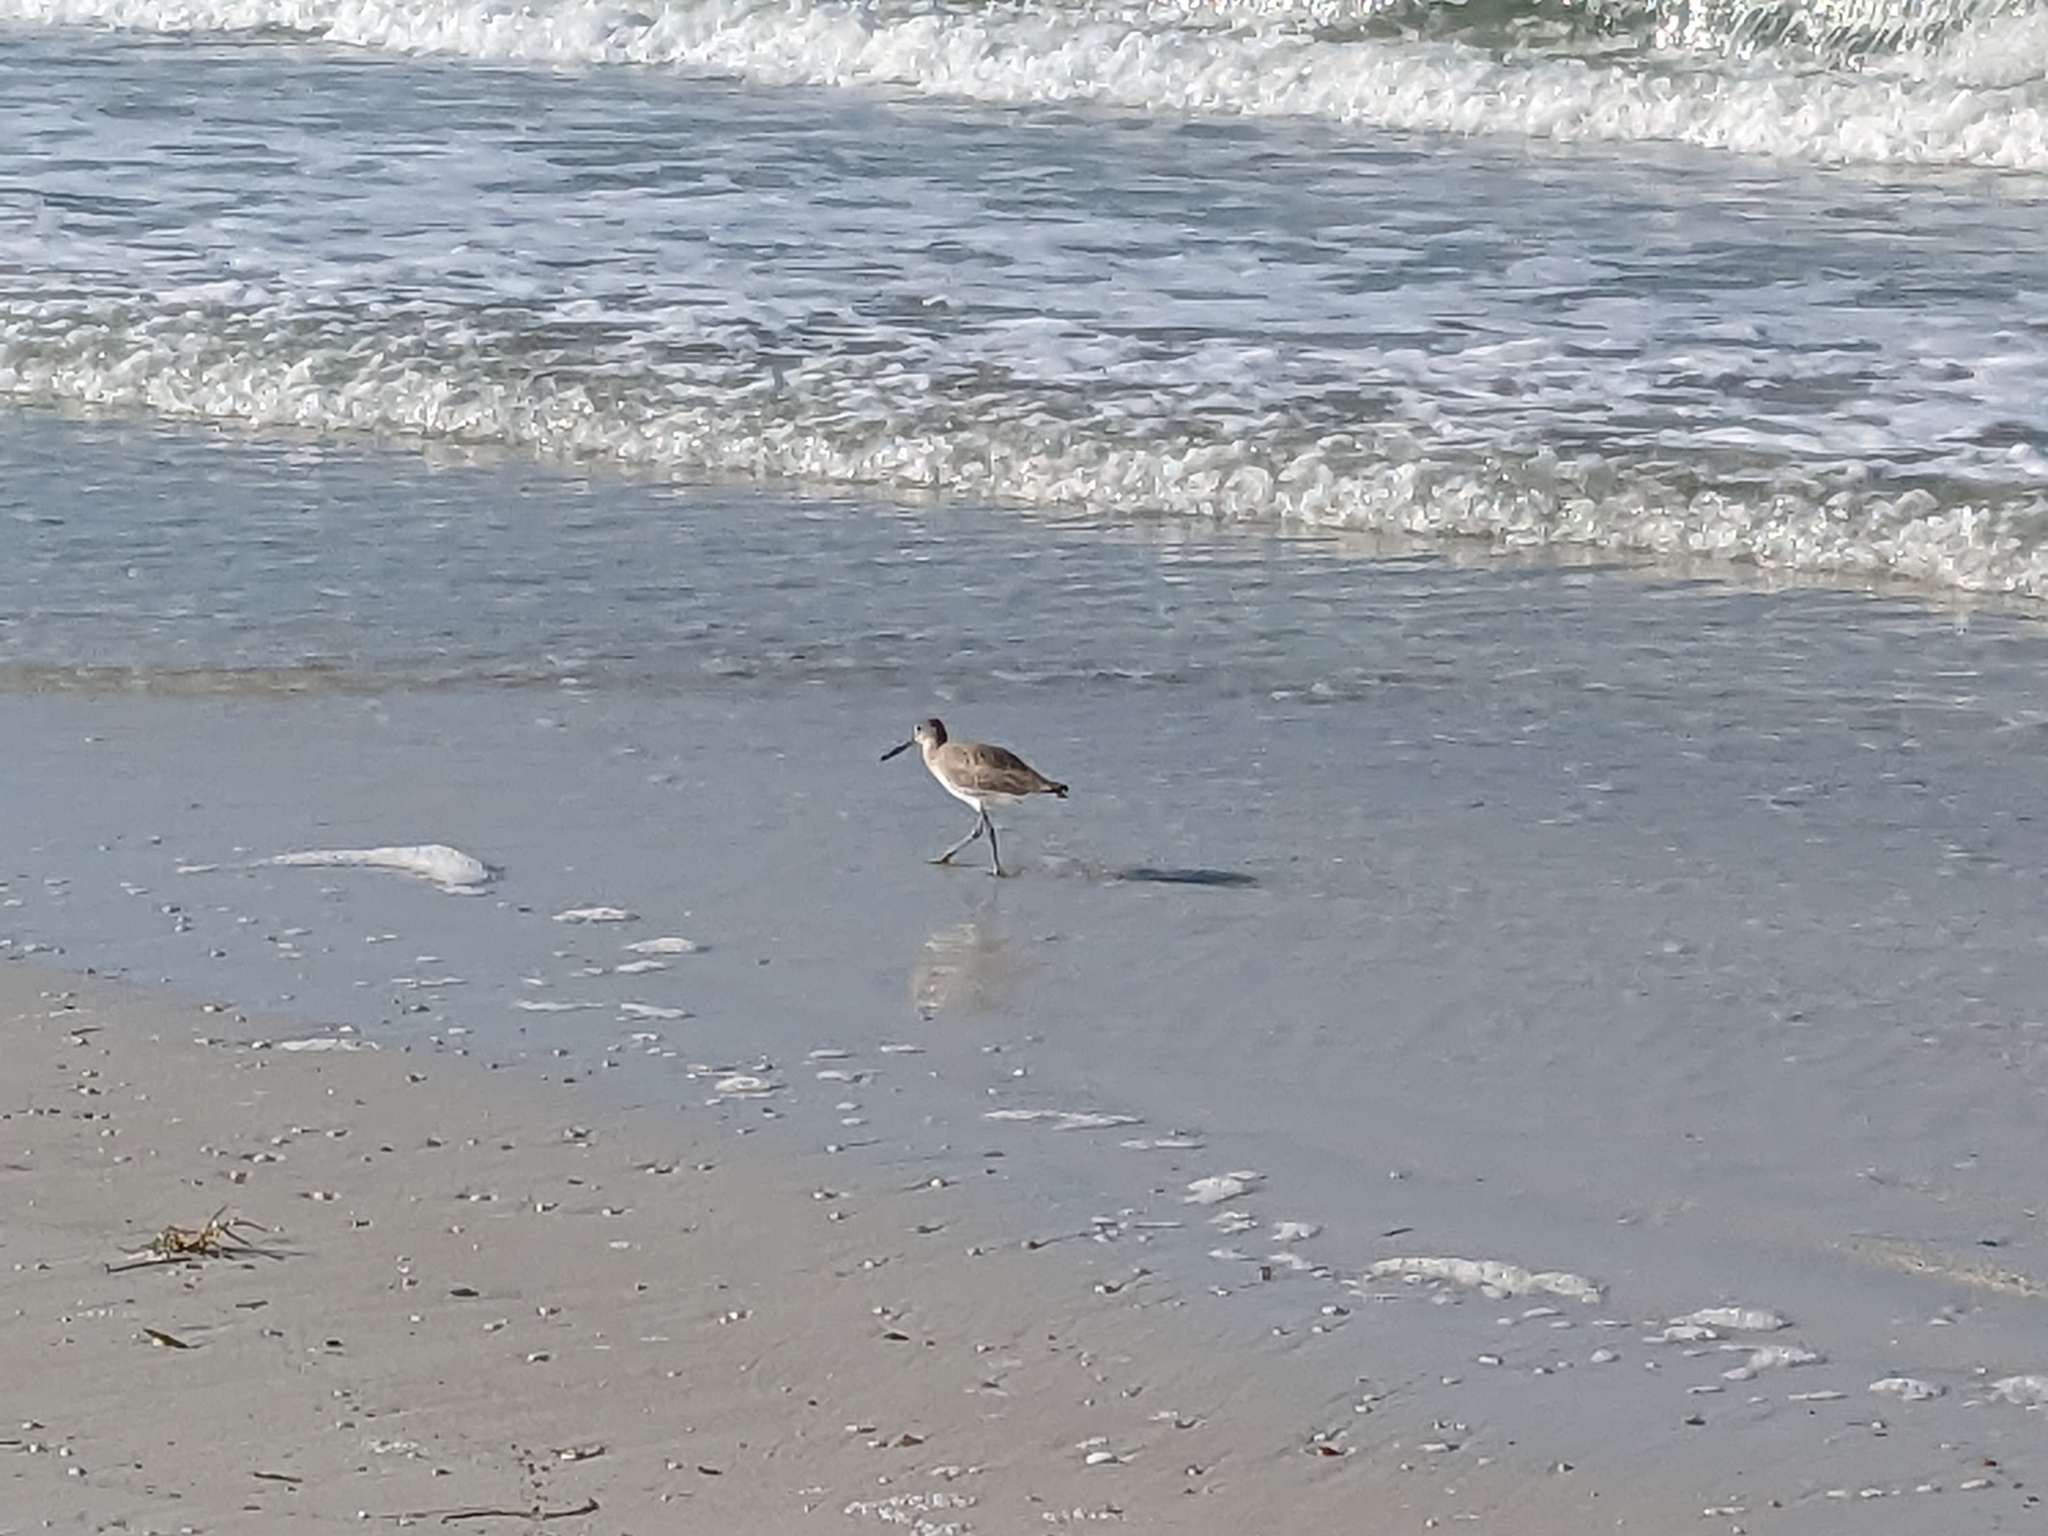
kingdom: Animalia
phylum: Chordata
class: Aves
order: Charadriiformes
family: Scolopacidae
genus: Tringa
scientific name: Tringa semipalmata
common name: Willet
